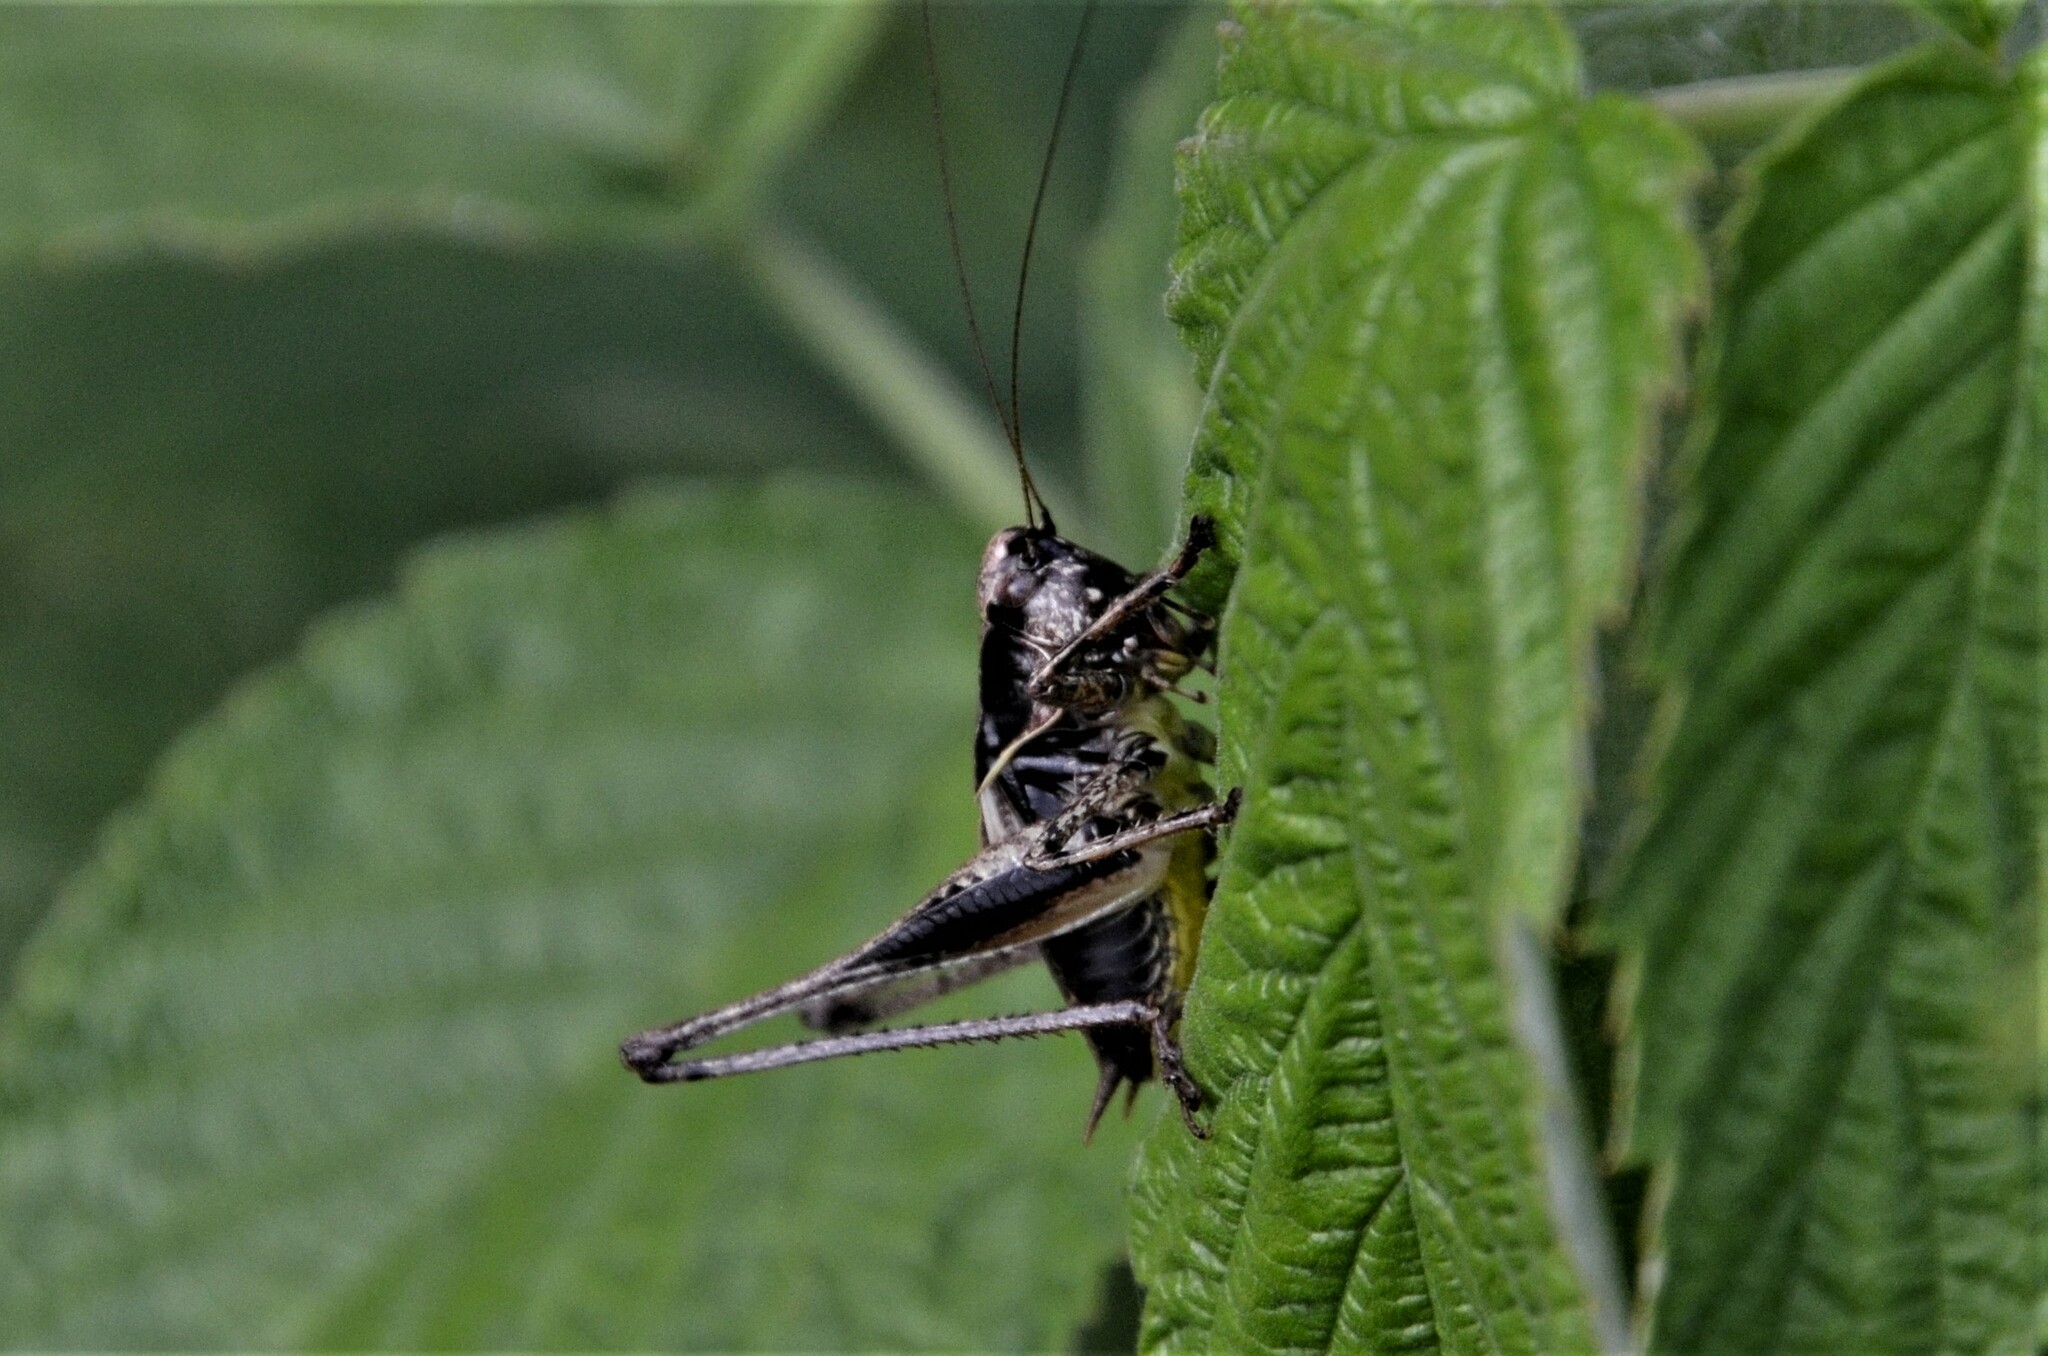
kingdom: Animalia
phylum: Arthropoda
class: Insecta
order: Orthoptera
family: Tettigoniidae
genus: Pholidoptera
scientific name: Pholidoptera griseoaptera
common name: Dark bush-cricket
